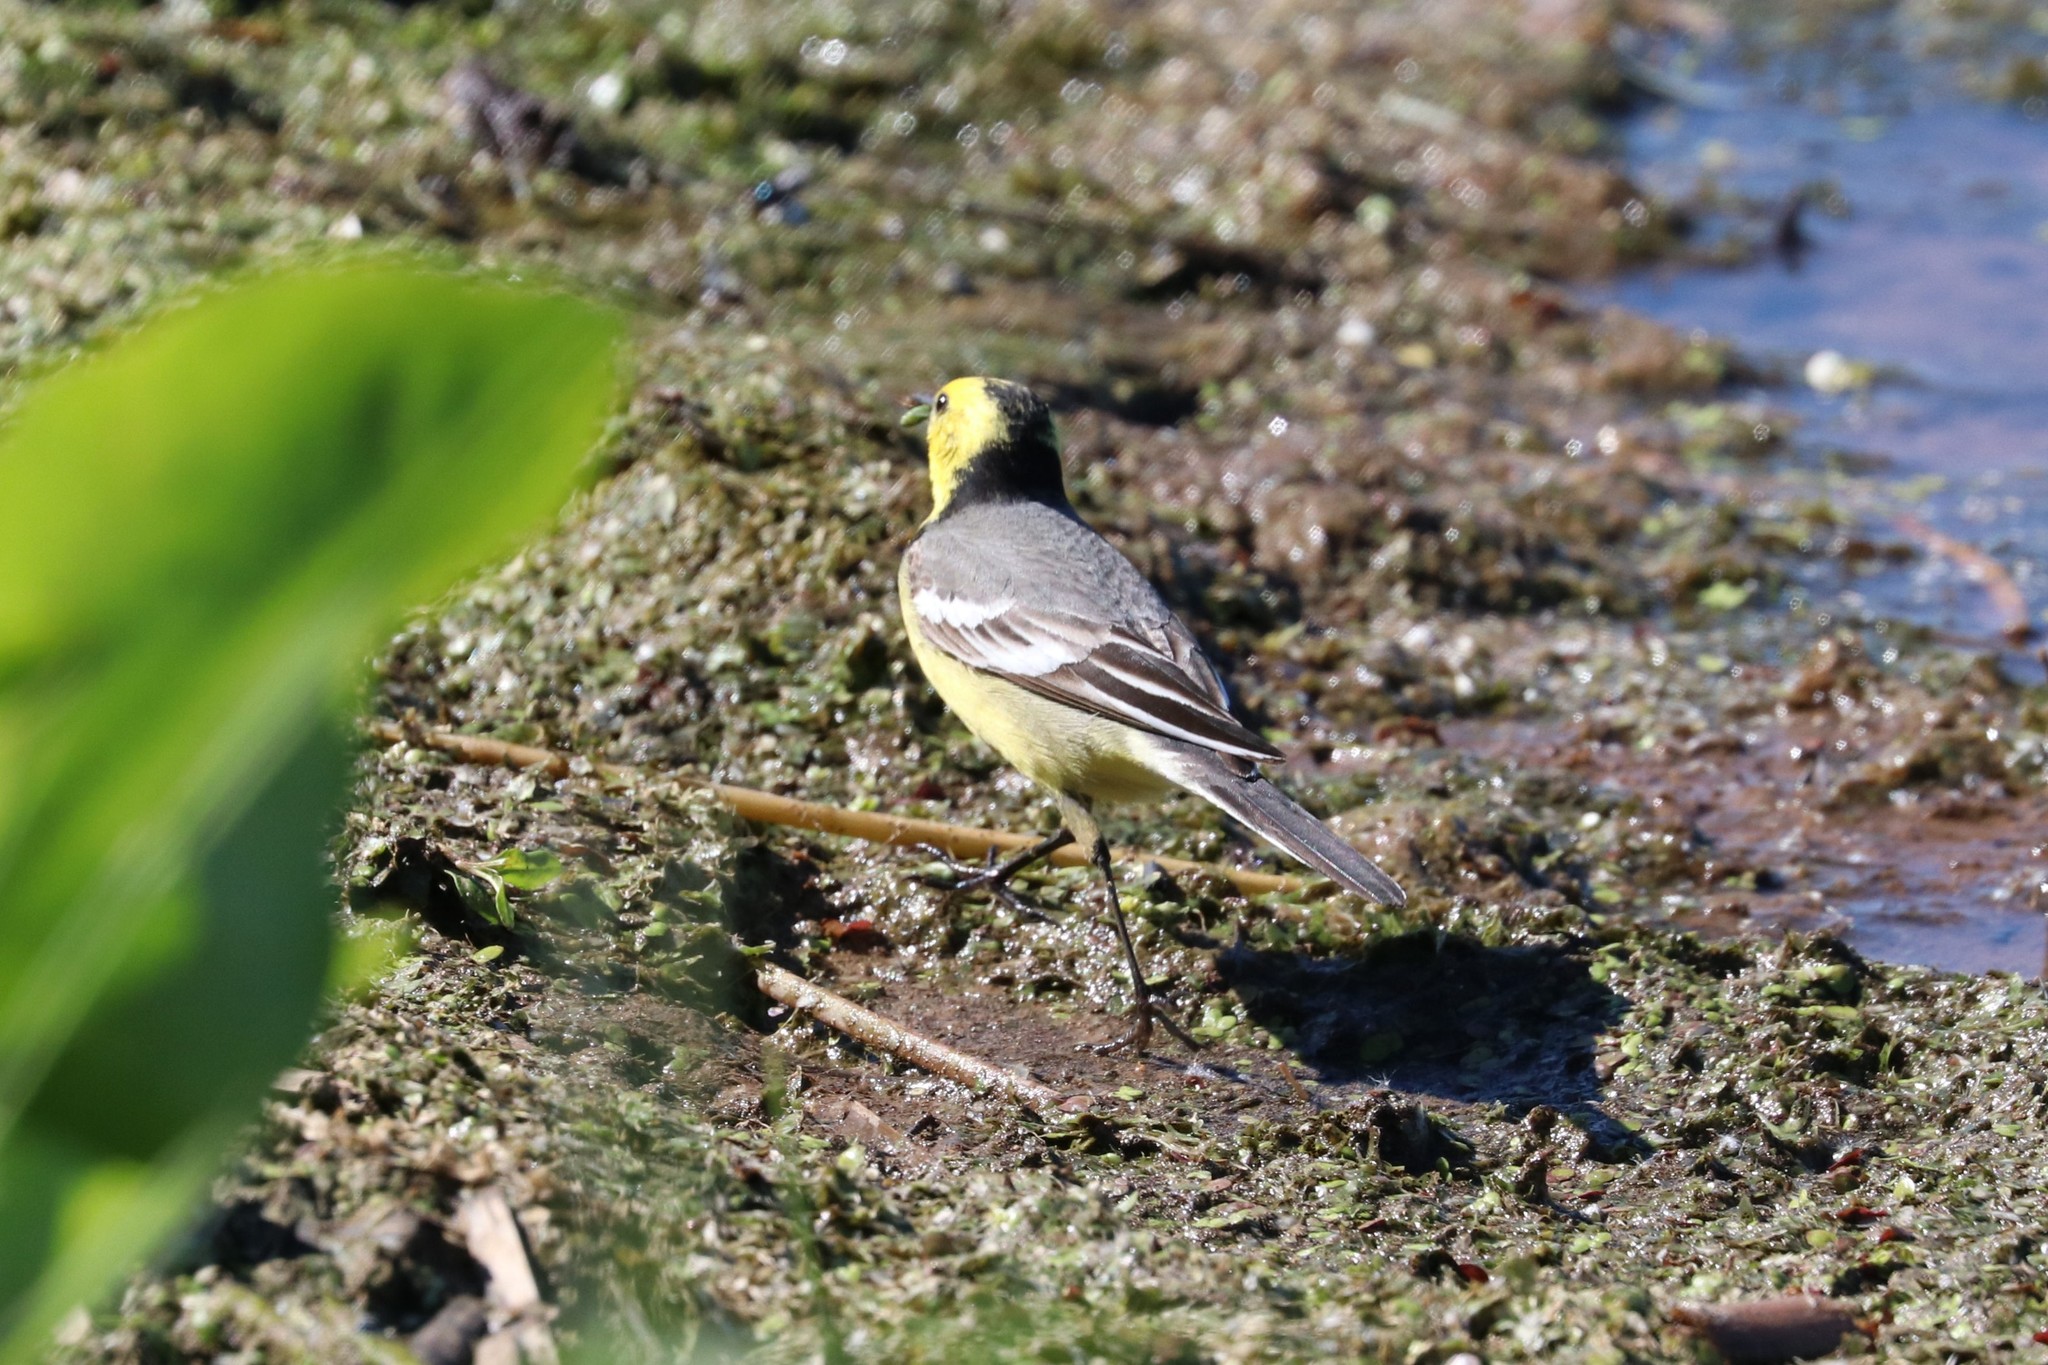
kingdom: Animalia
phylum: Chordata
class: Aves
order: Passeriformes
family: Motacillidae
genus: Motacilla
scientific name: Motacilla citreola
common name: Citrine wagtail
